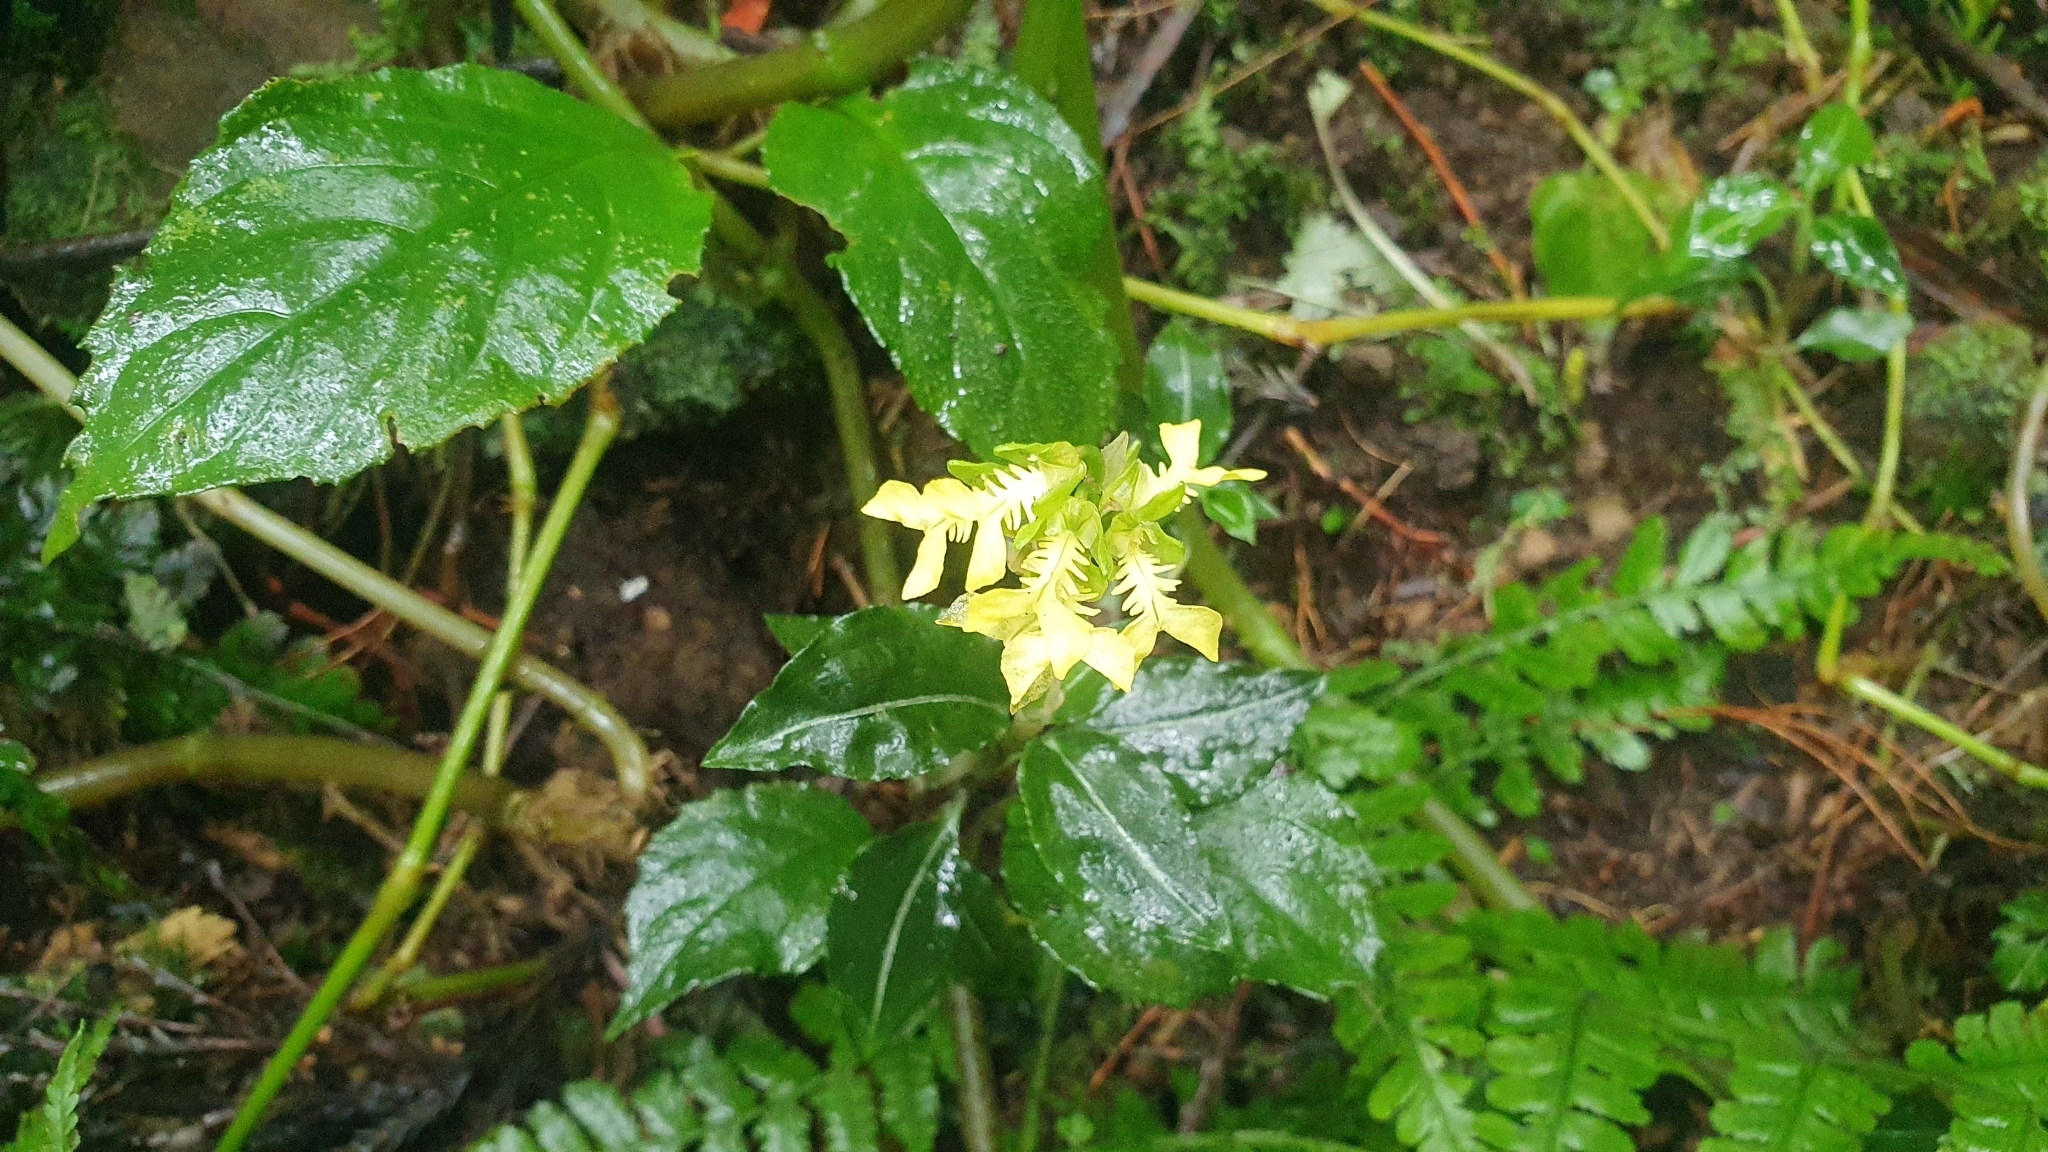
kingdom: Plantae
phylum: Tracheophyta
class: Liliopsida
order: Asparagales
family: Orchidaceae
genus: Odontochilus
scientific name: Odontochilus lanceolatus
